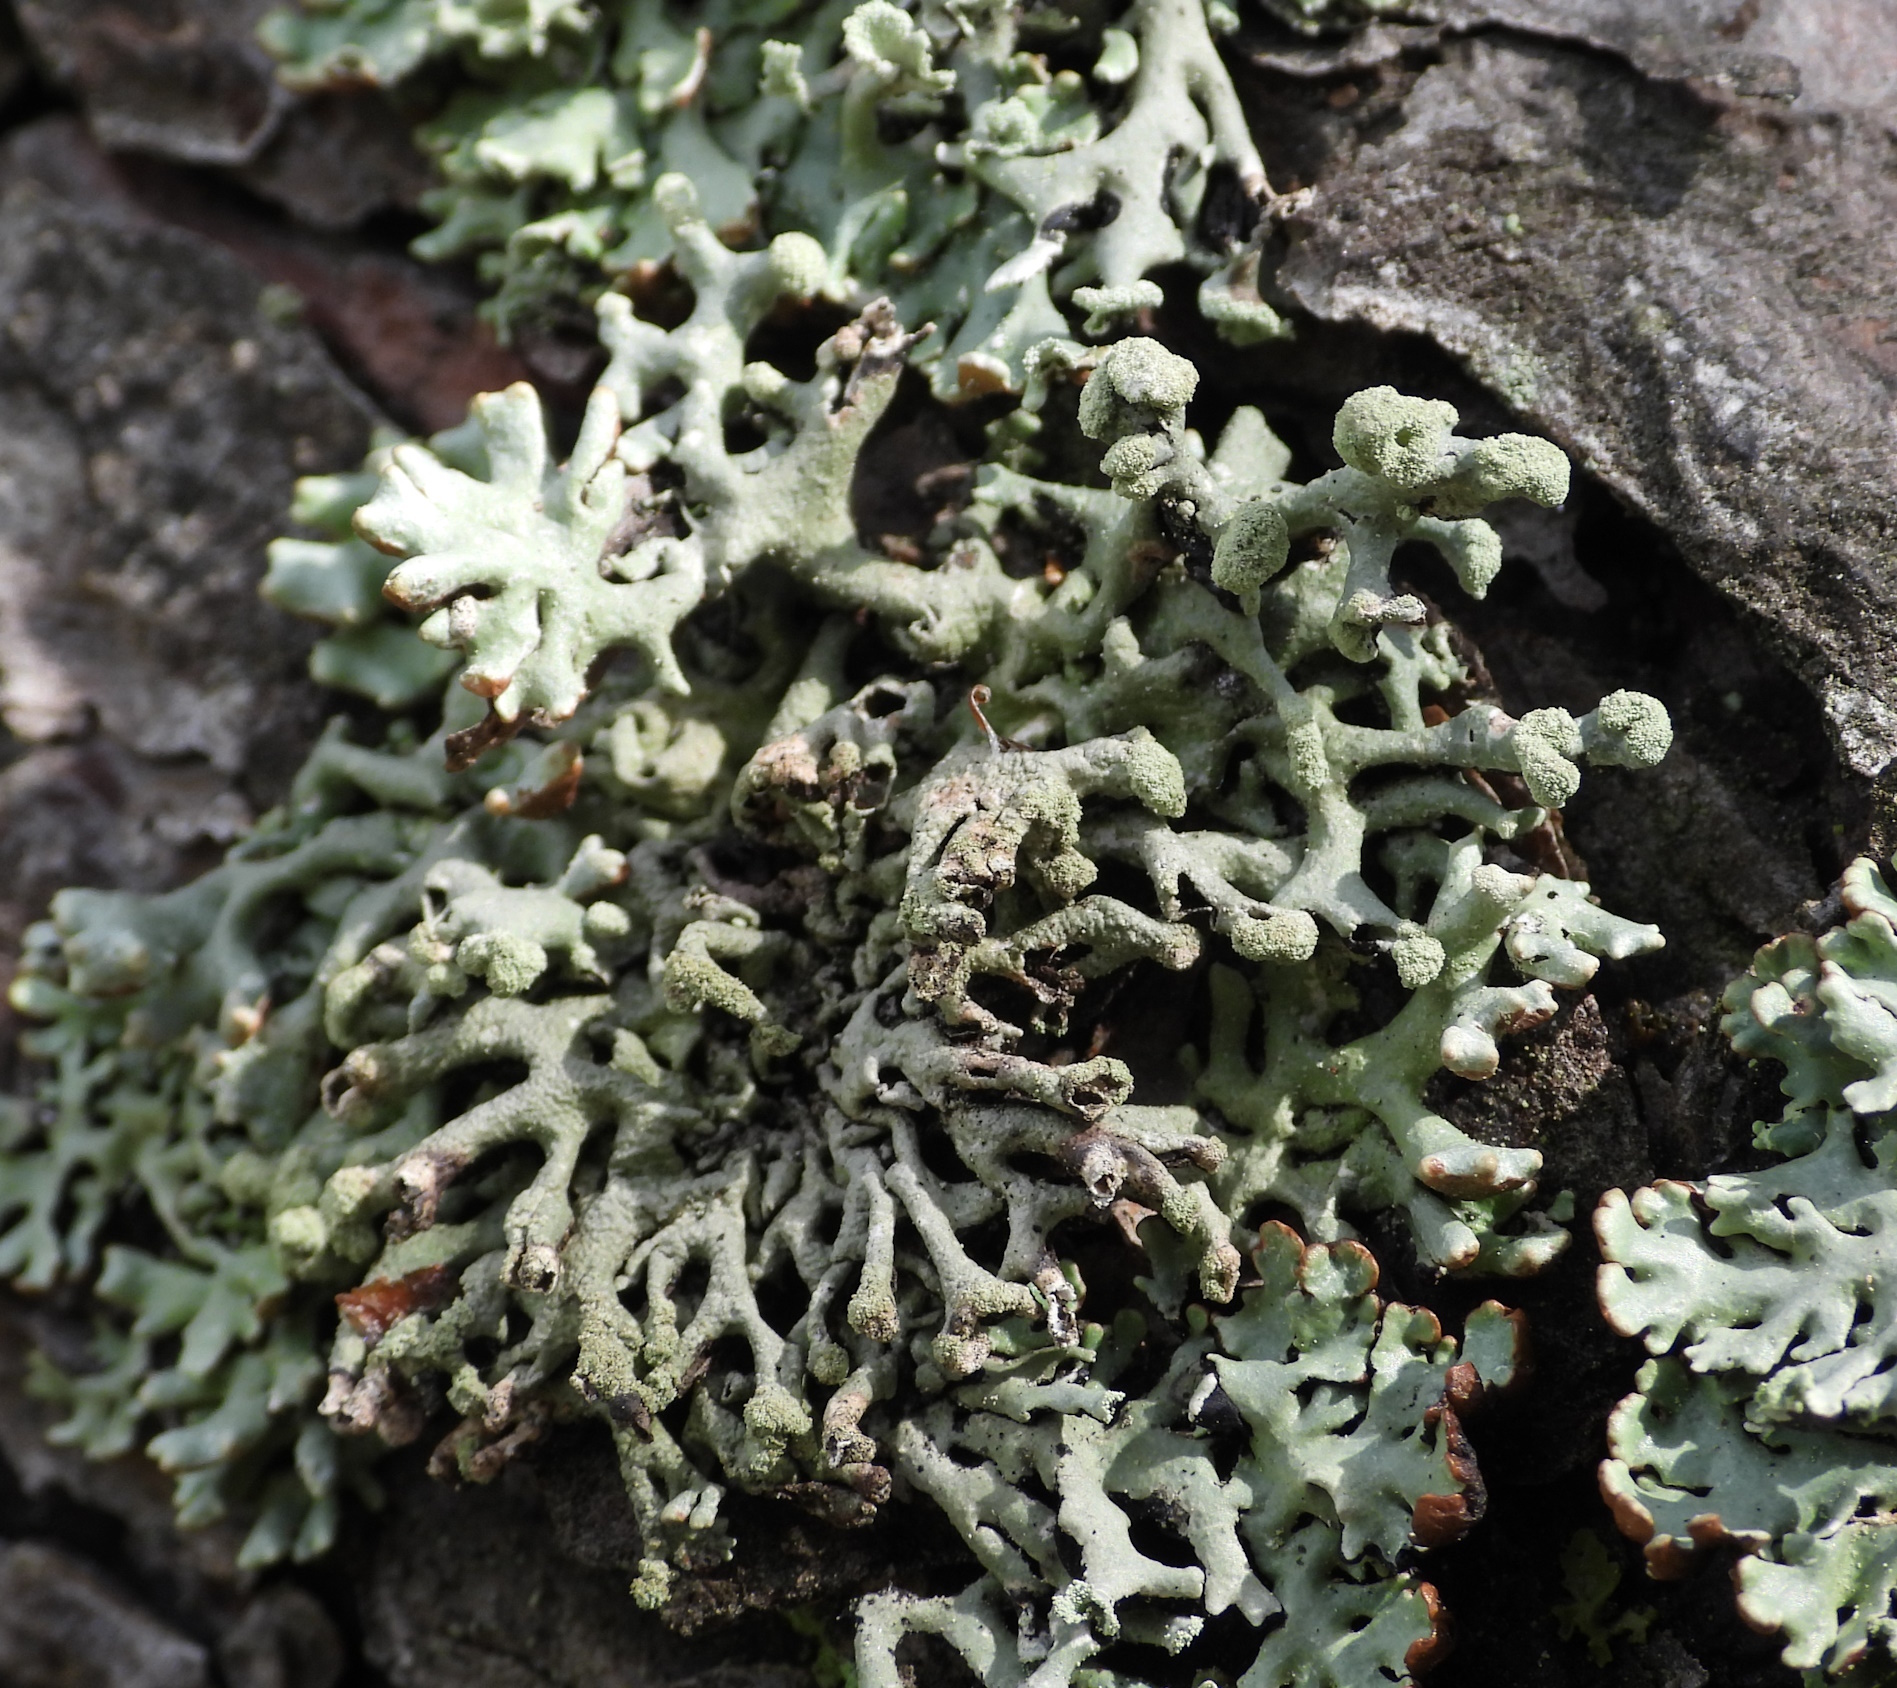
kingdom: Fungi
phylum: Ascomycota
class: Lecanoromycetes
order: Lecanorales
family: Parmeliaceae
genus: Hypogymnia
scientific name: Hypogymnia tubulosa
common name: Powder-headed tube lichen
